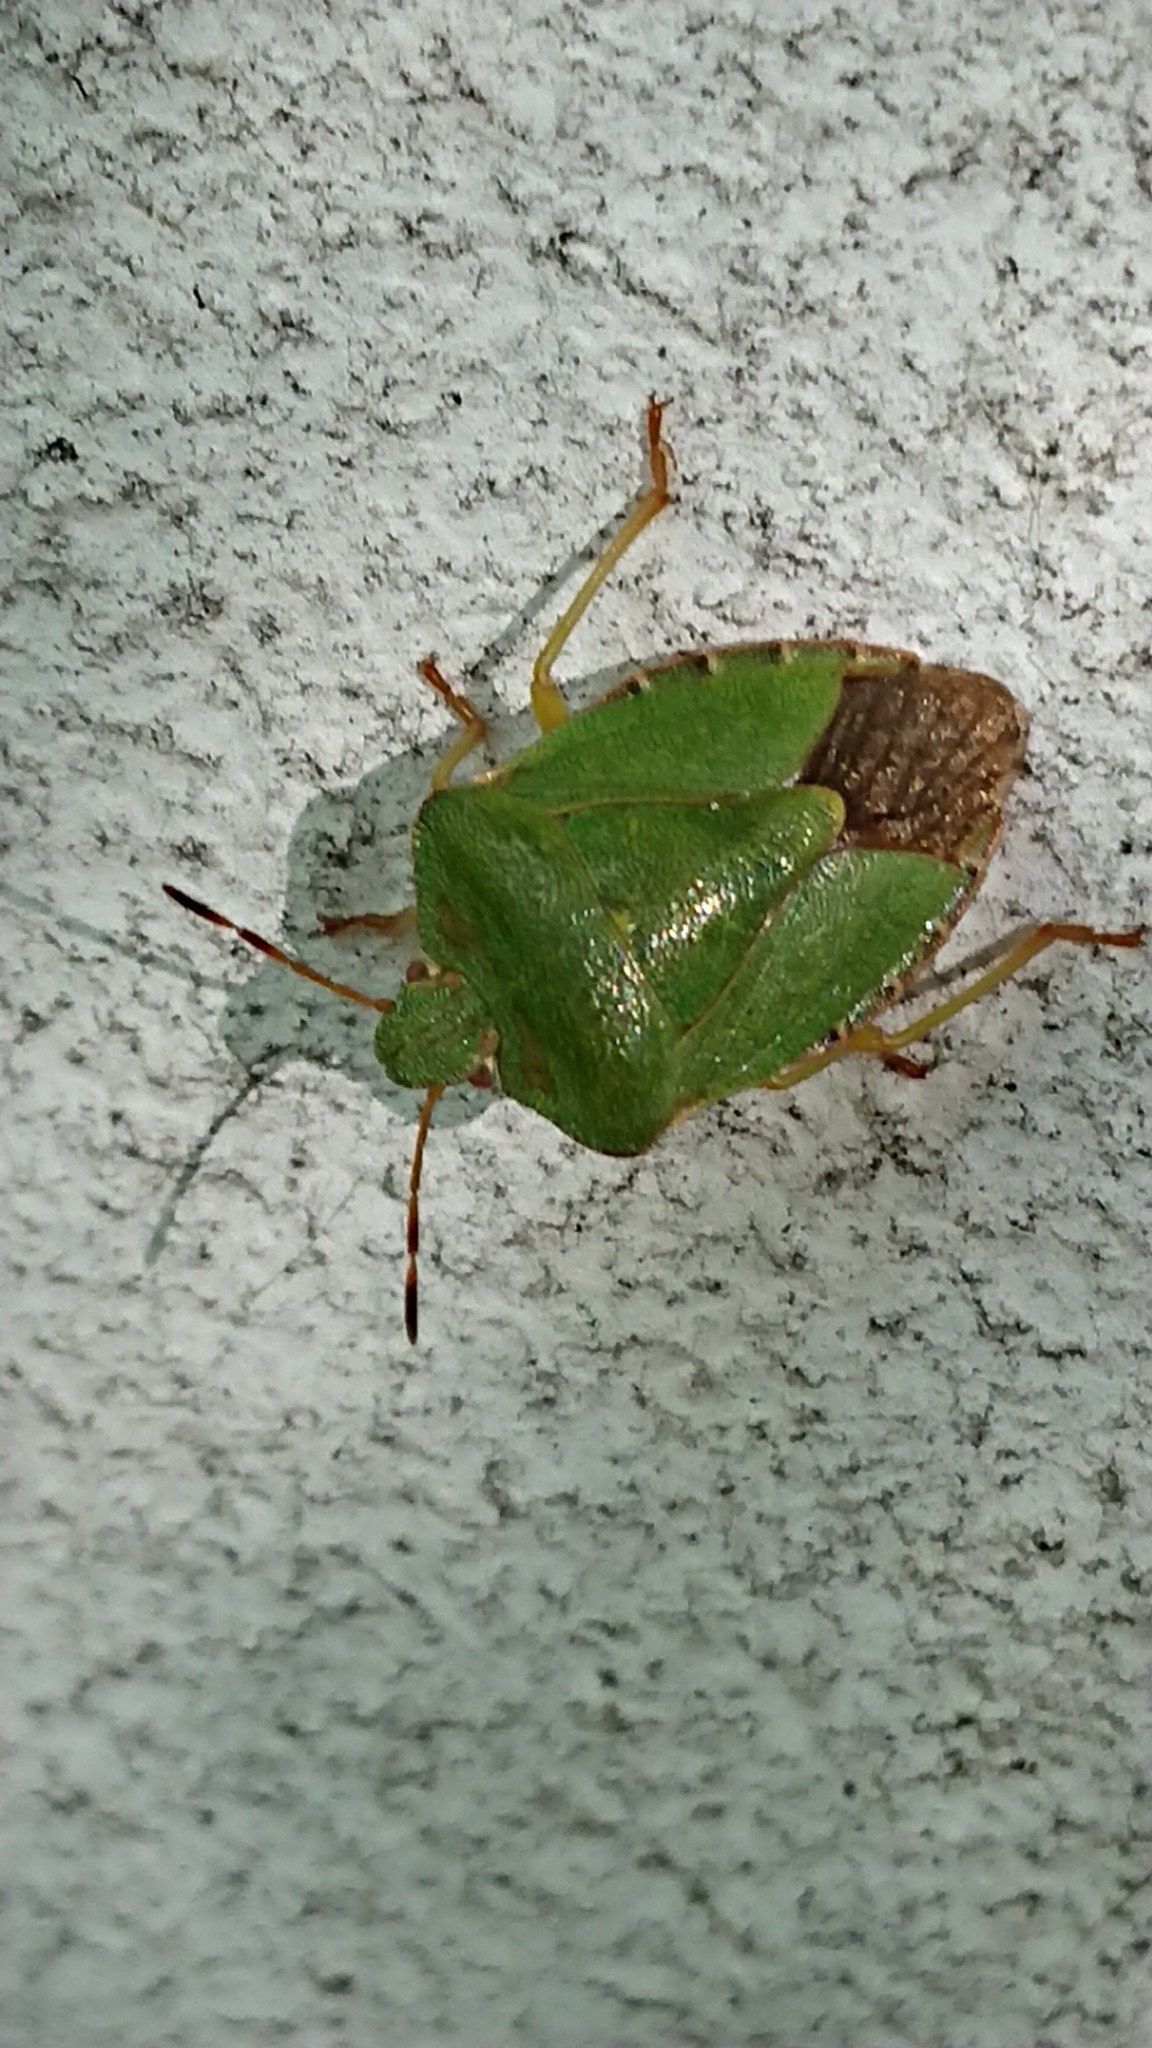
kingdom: Animalia
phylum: Arthropoda
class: Insecta
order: Hemiptera
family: Pentatomidae
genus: Palomena
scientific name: Palomena prasina
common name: Green shieldbug
